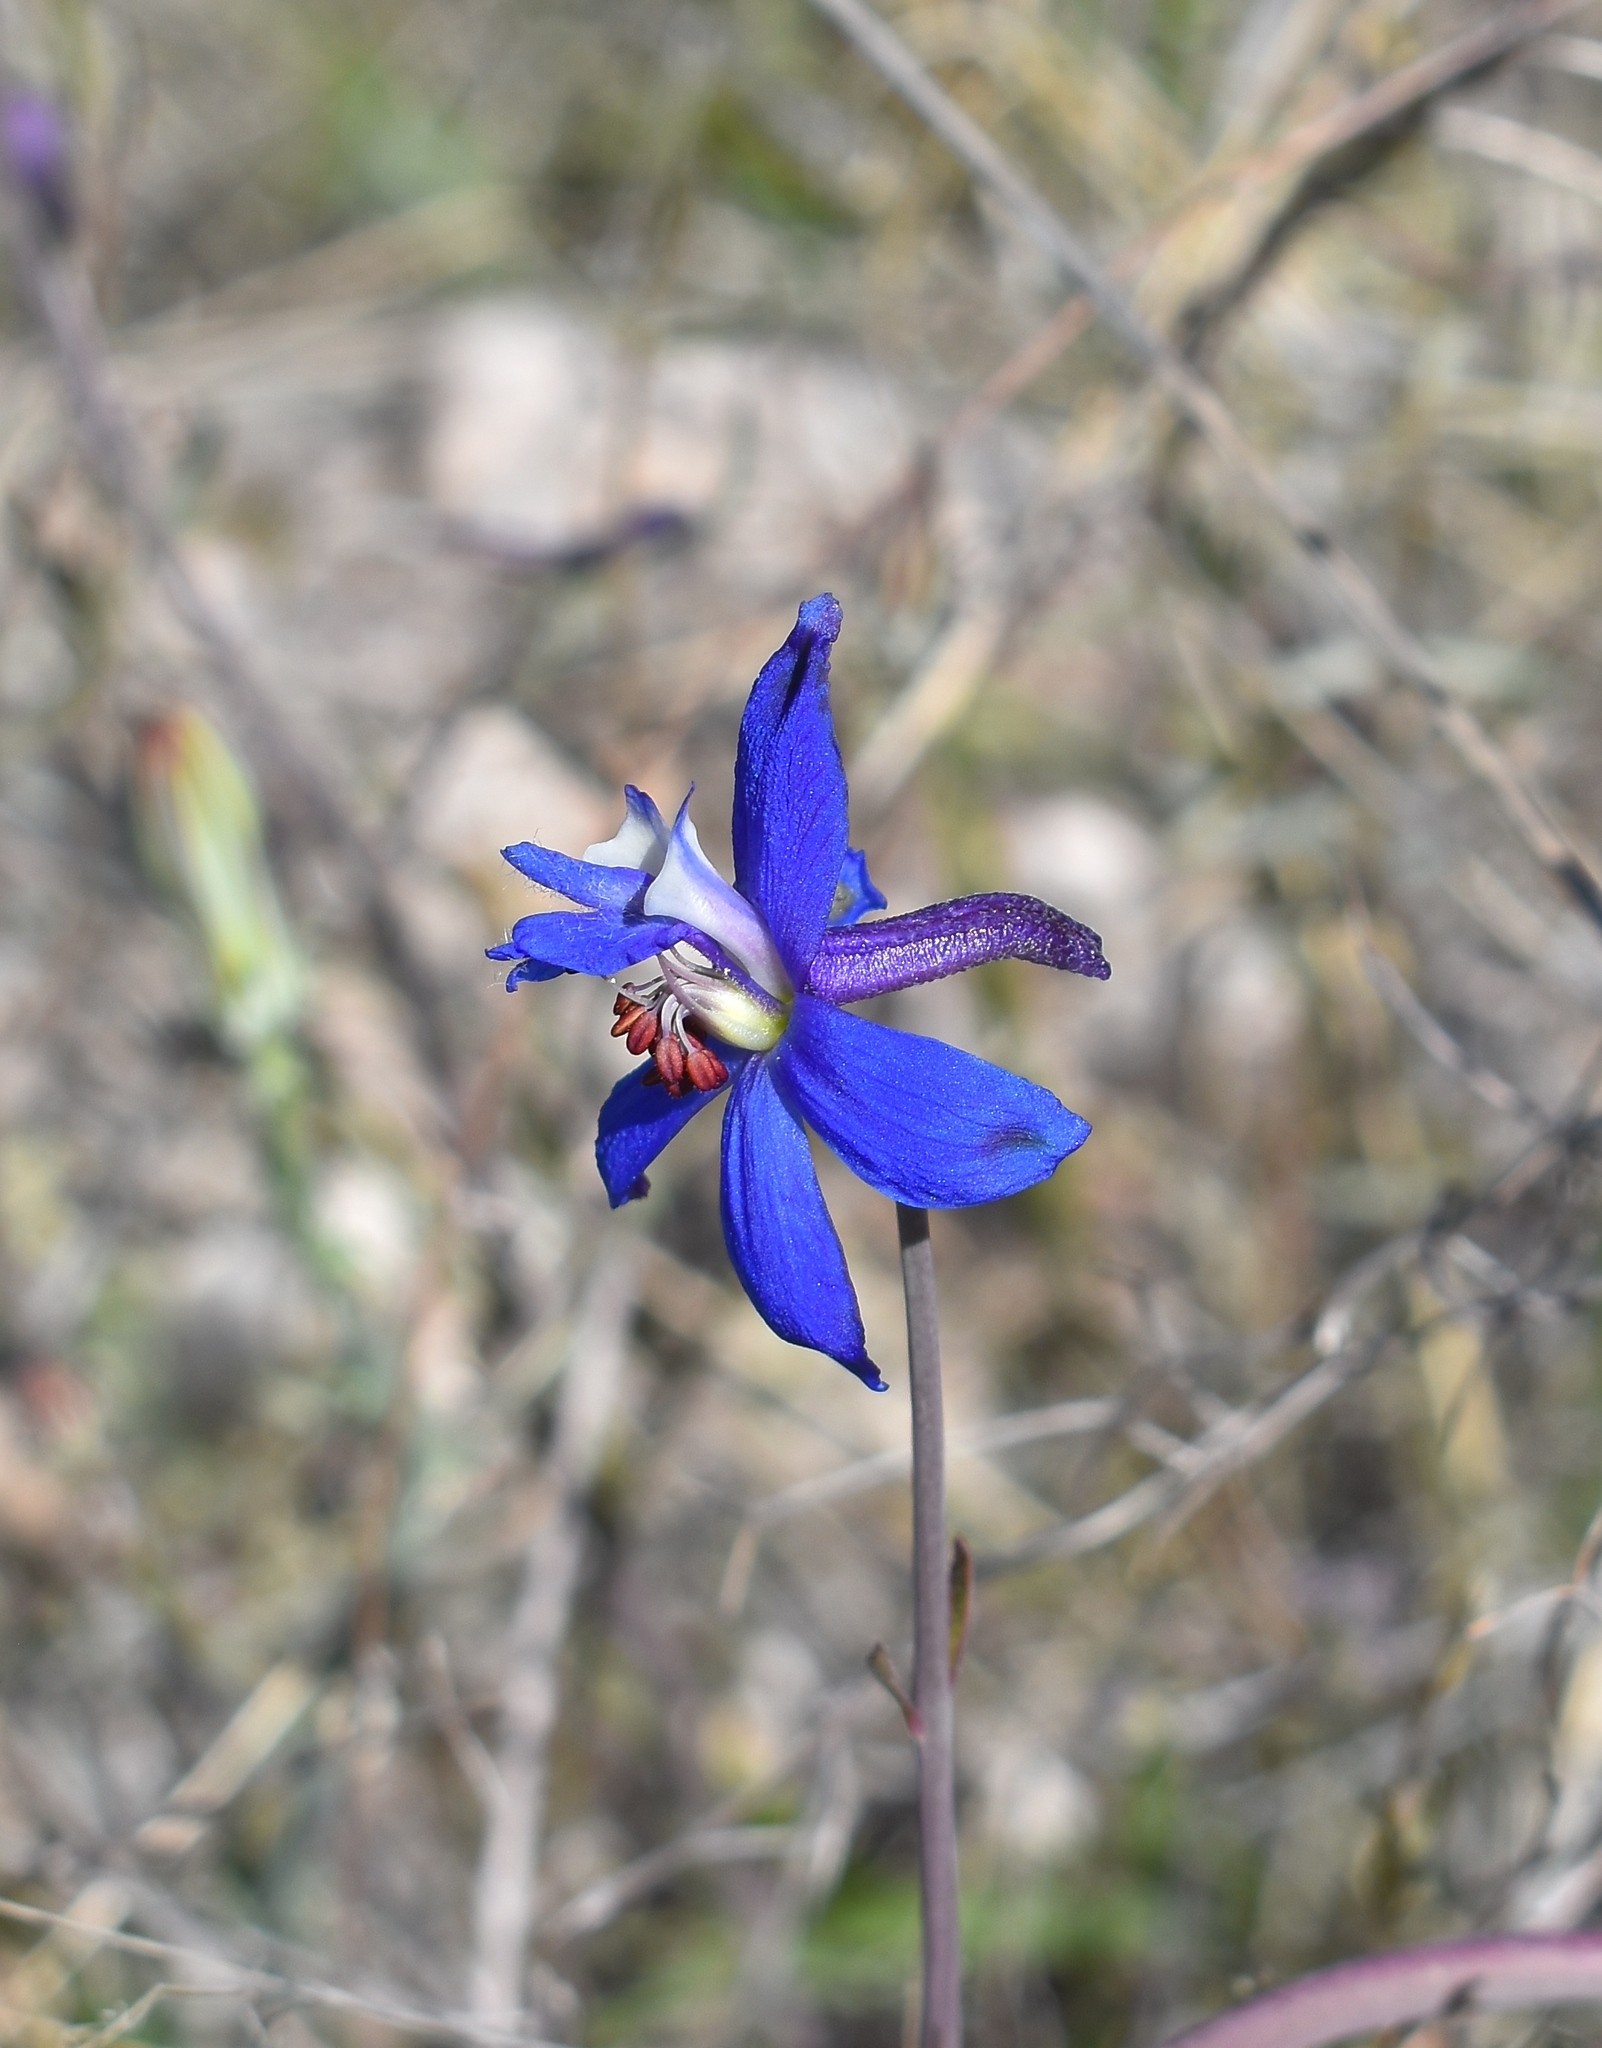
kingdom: Plantae
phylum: Tracheophyta
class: Magnoliopsida
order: Ranunculales
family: Ranunculaceae
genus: Delphinium
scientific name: Delphinium scaposum
